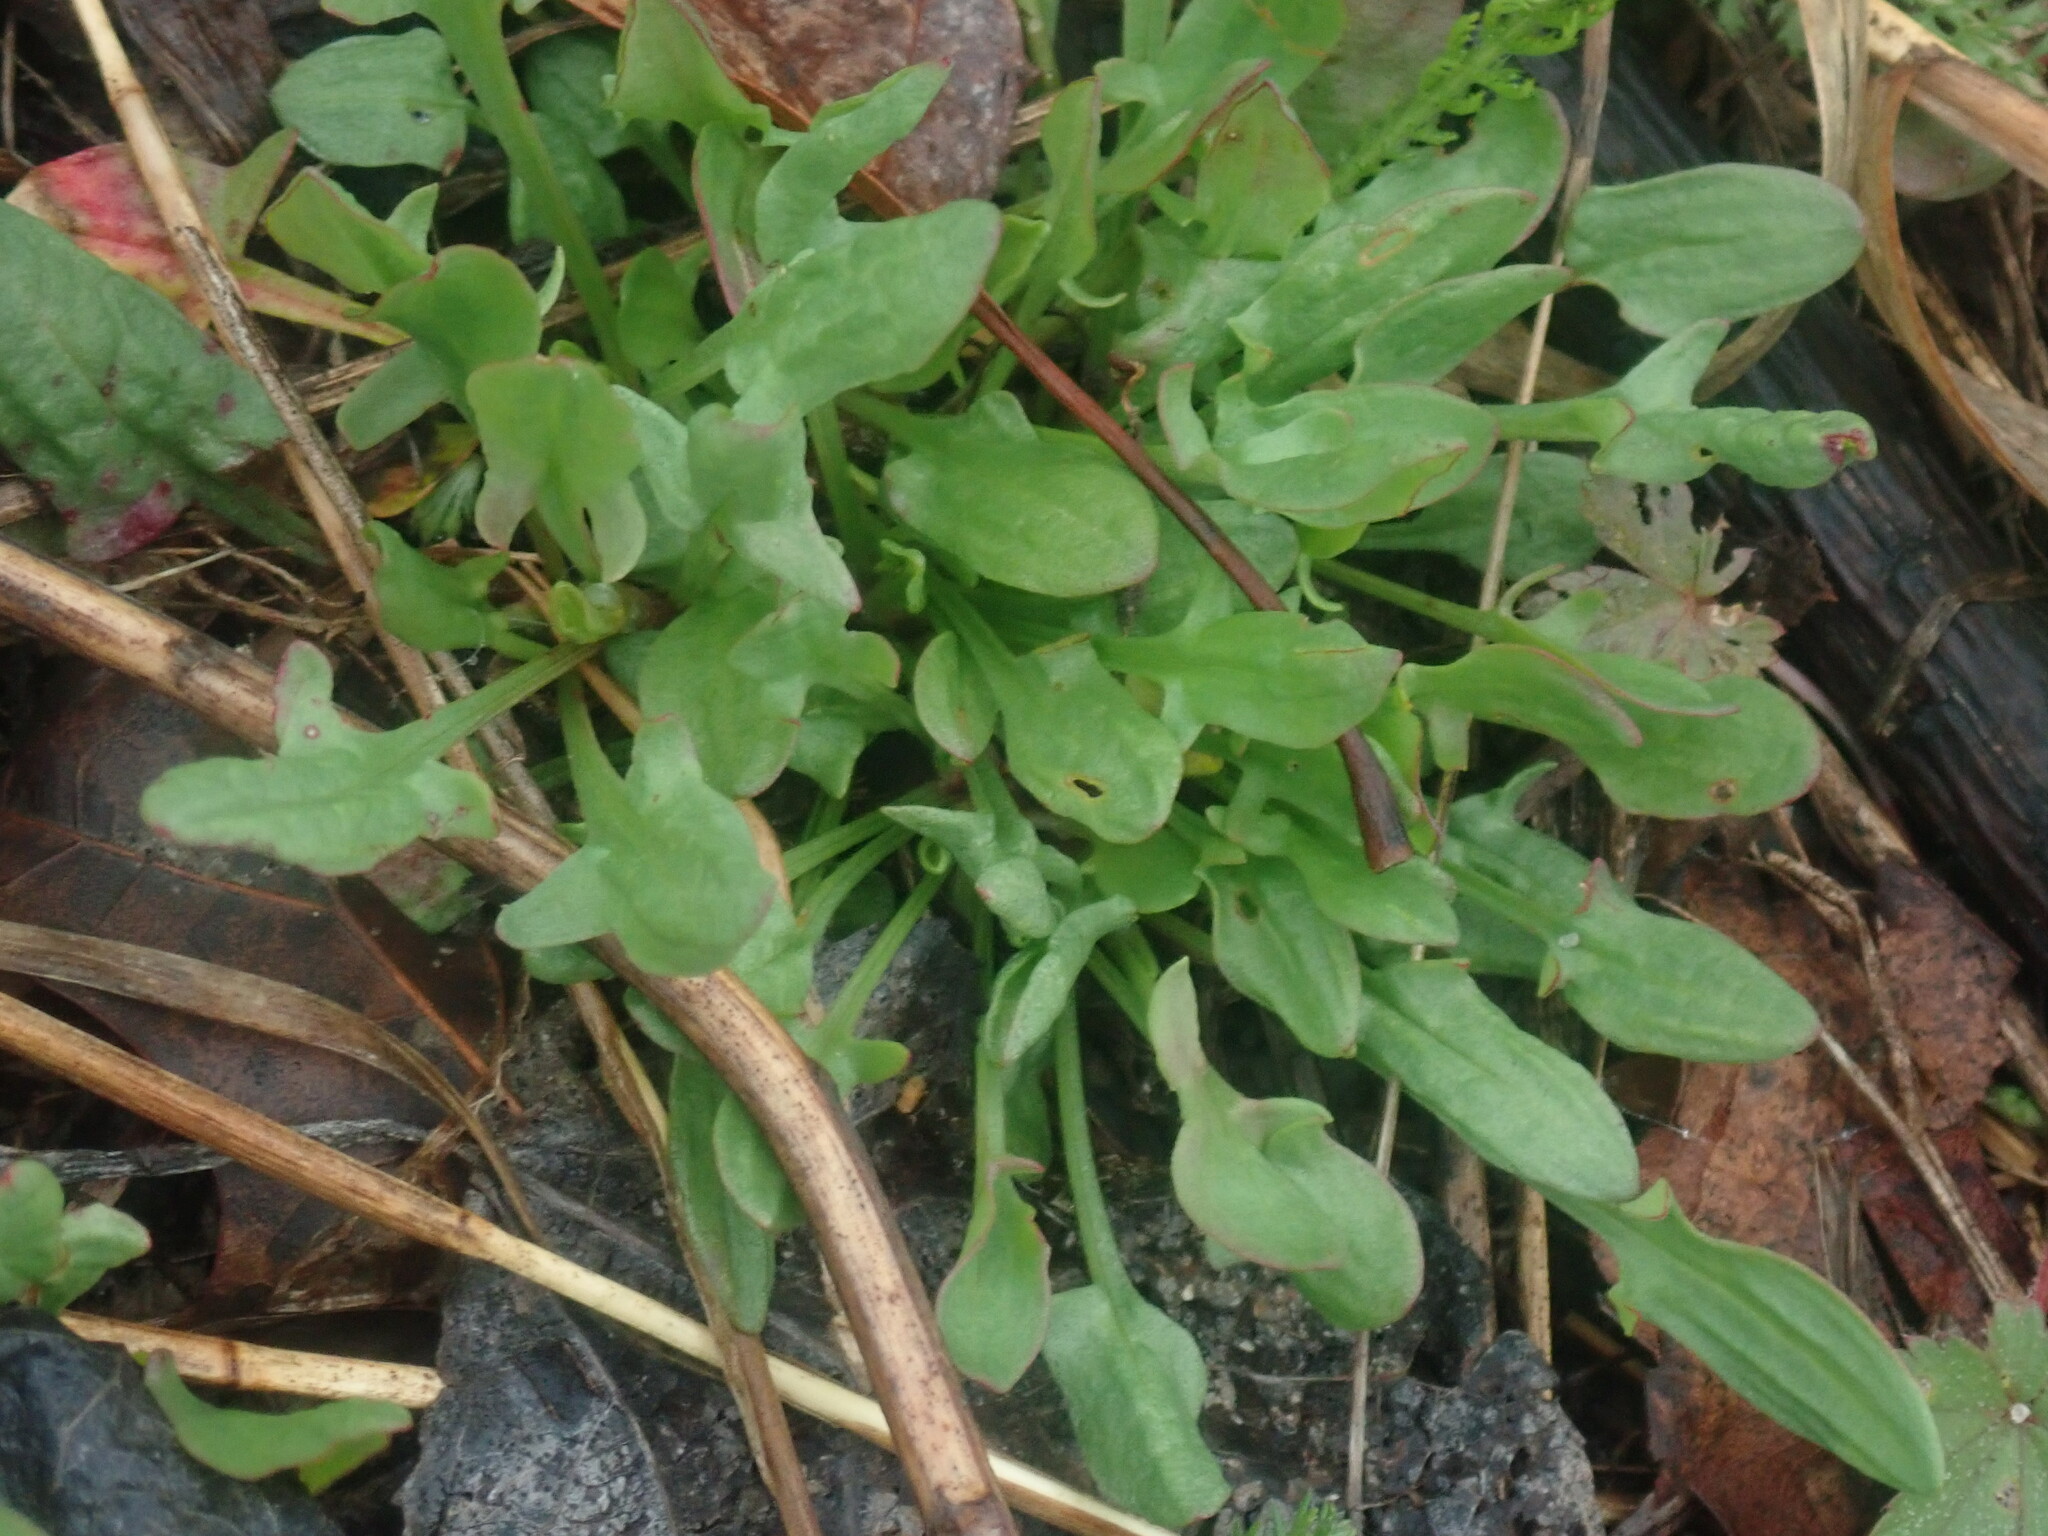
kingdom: Plantae
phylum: Tracheophyta
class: Magnoliopsida
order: Caryophyllales
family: Polygonaceae
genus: Rumex
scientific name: Rumex acetosella
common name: Common sheep sorrel
